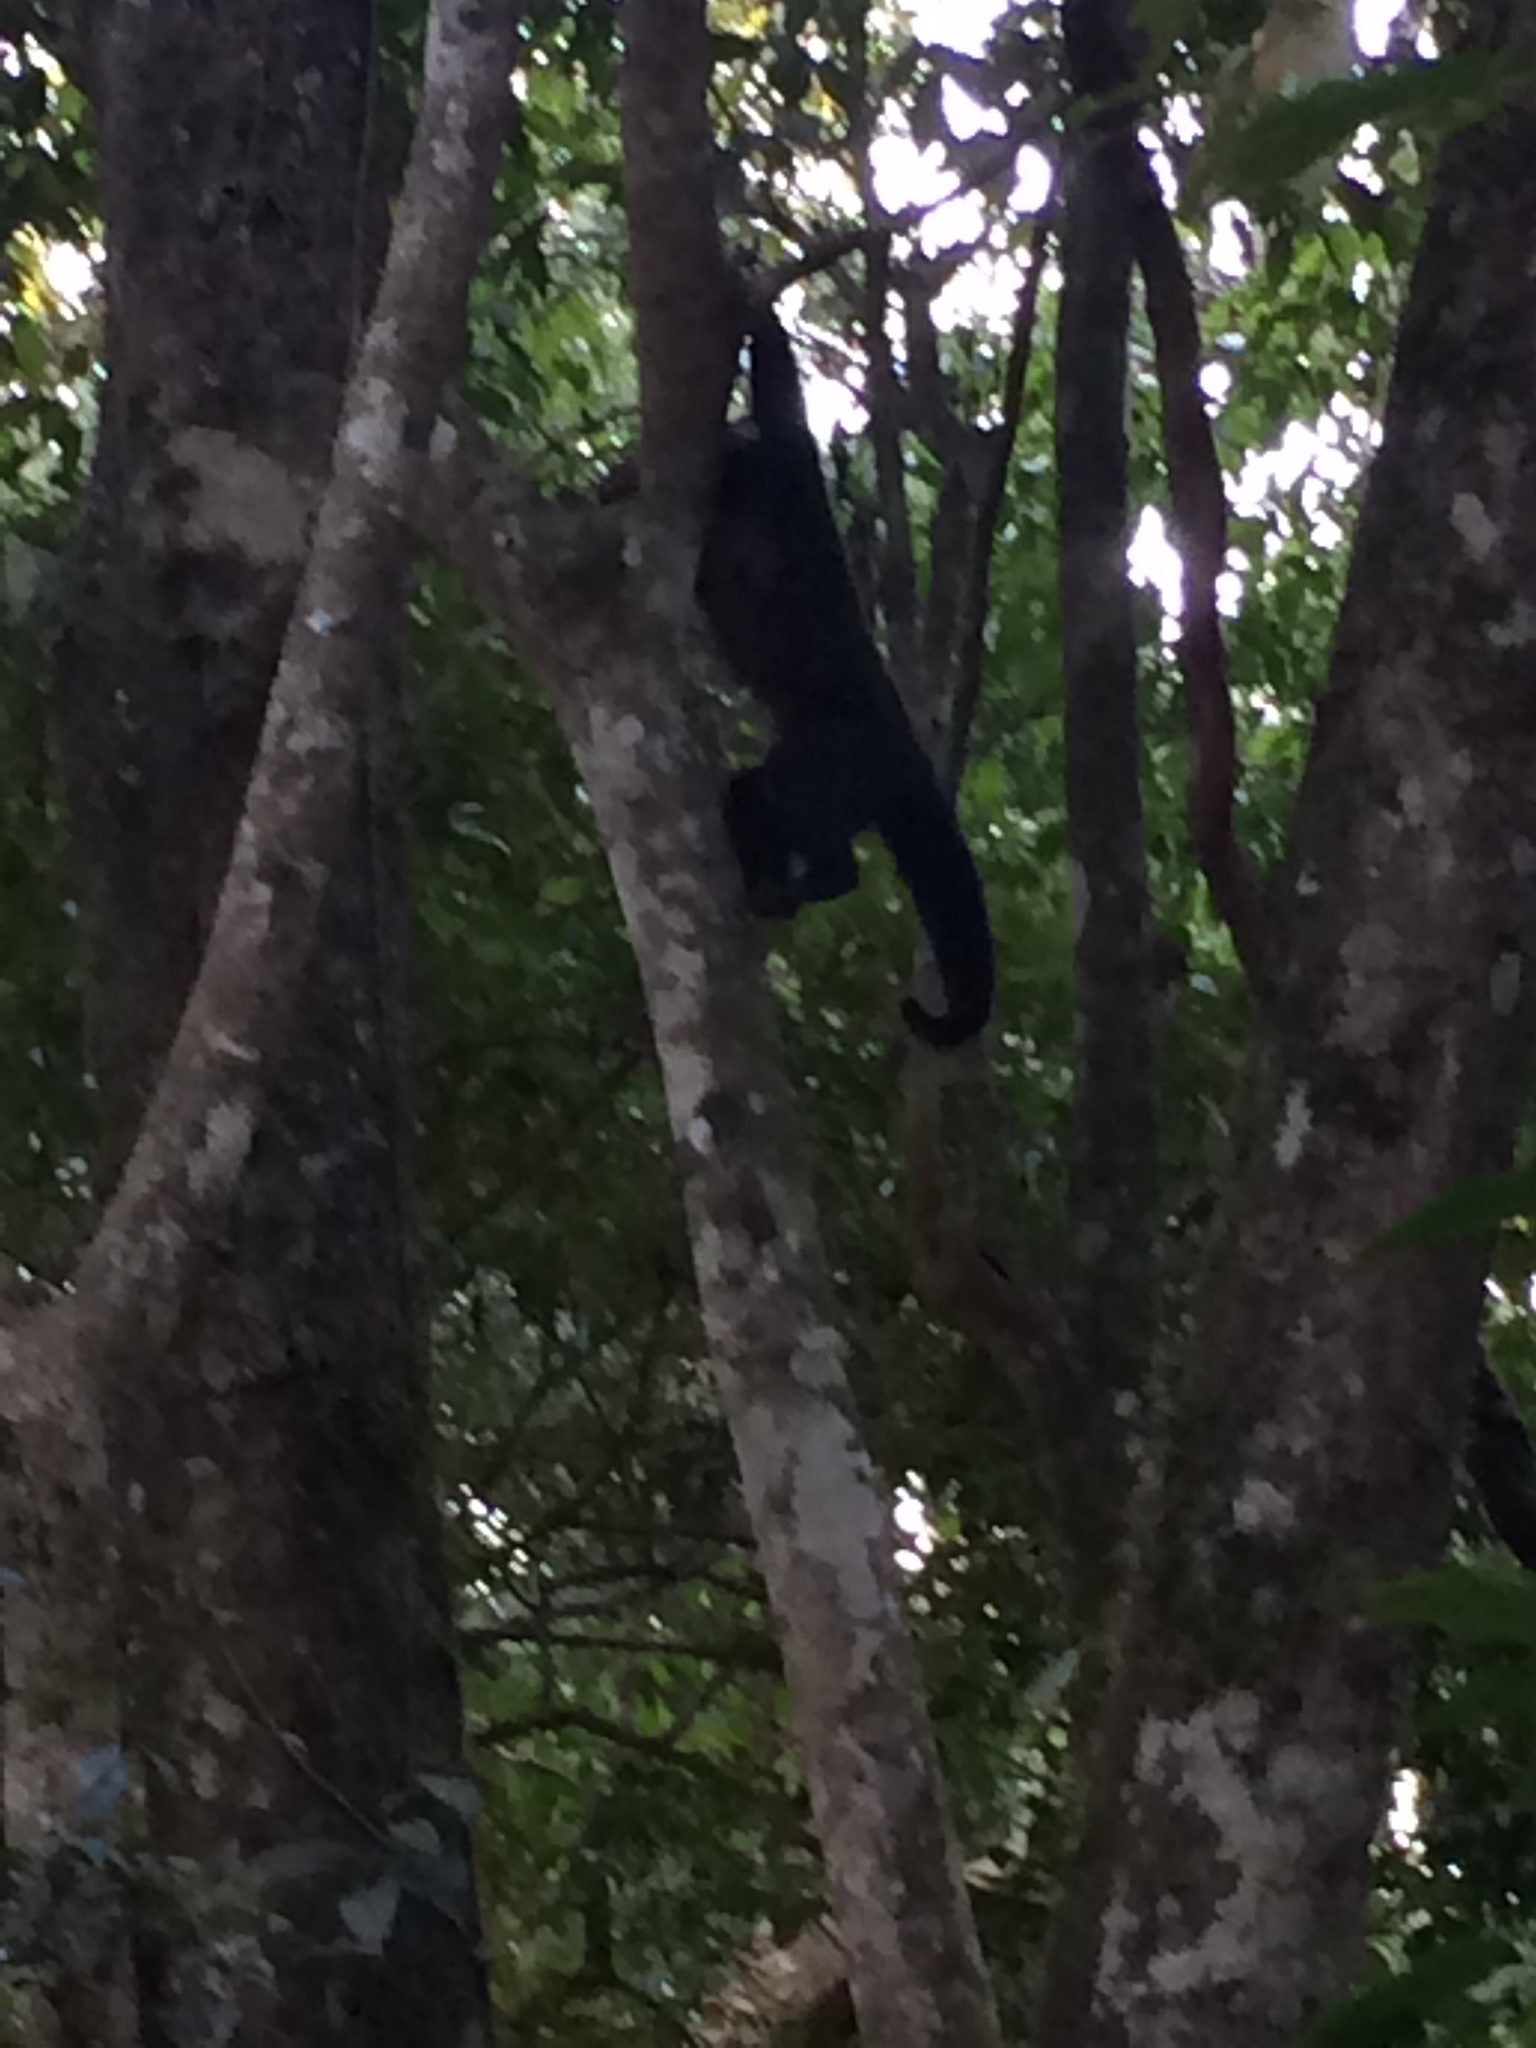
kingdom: Animalia
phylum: Chordata
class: Mammalia
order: Primates
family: Cebidae
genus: Sapajus
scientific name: Sapajus nigritus
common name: Black capuchin
